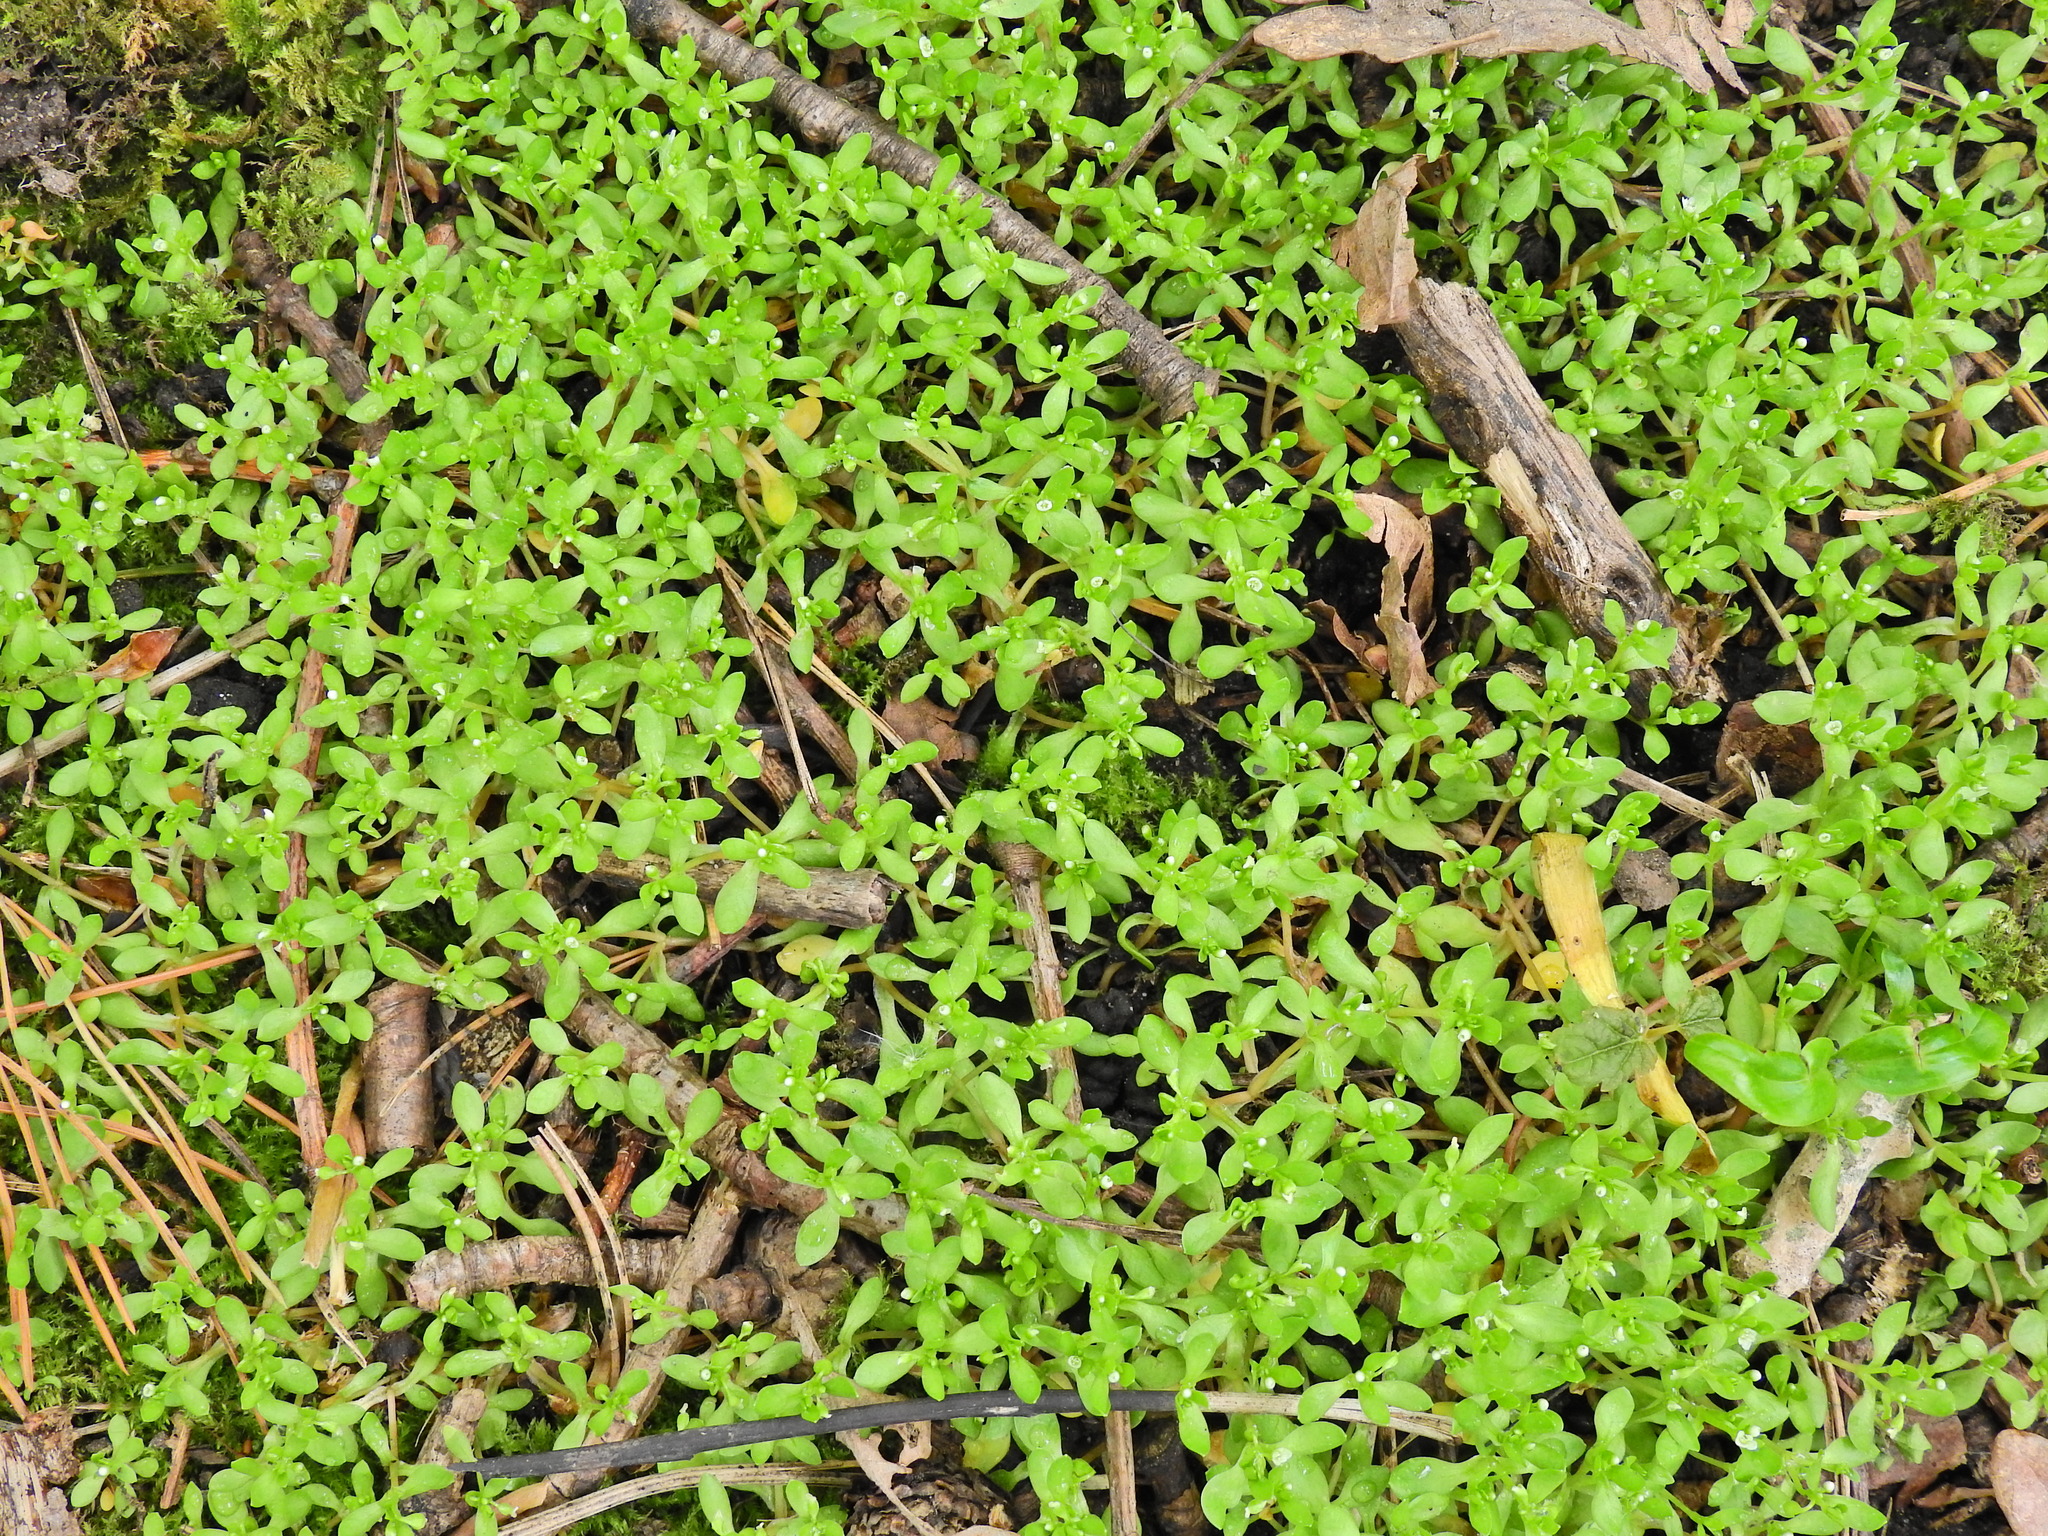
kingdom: Plantae
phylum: Tracheophyta
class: Magnoliopsida
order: Caryophyllales
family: Montiaceae
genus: Montia
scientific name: Montia fontana
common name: Blinks
